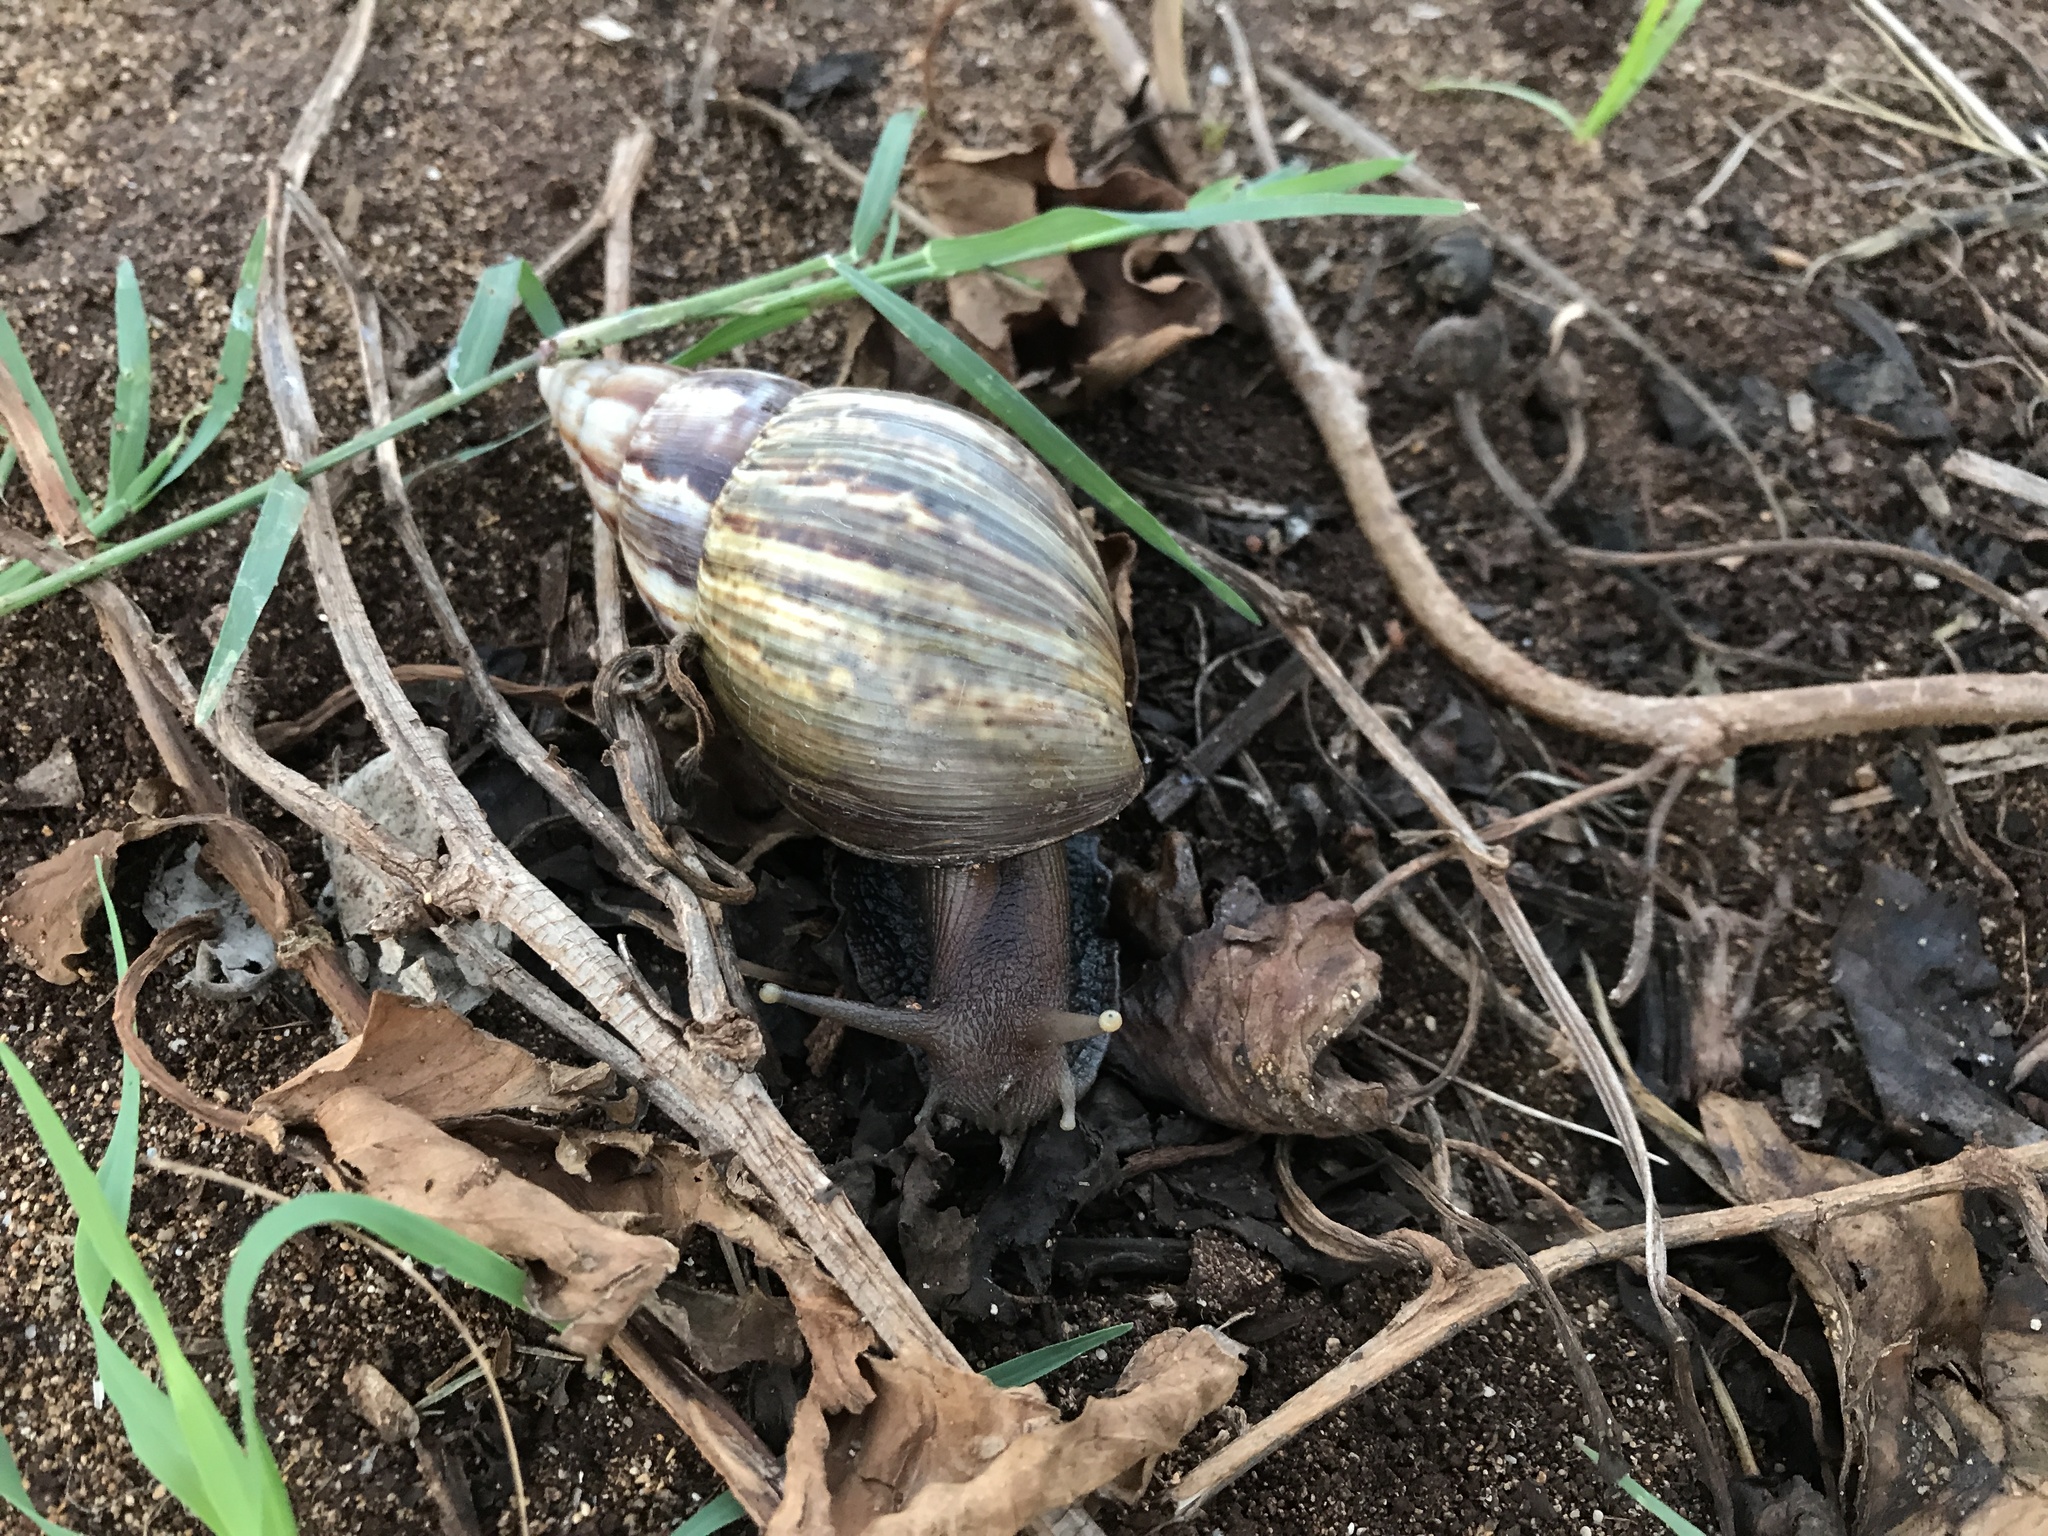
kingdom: Animalia
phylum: Mollusca
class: Gastropoda
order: Stylommatophora
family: Achatinidae
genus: Lissachatina
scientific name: Lissachatina fulica
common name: Giant african snail
